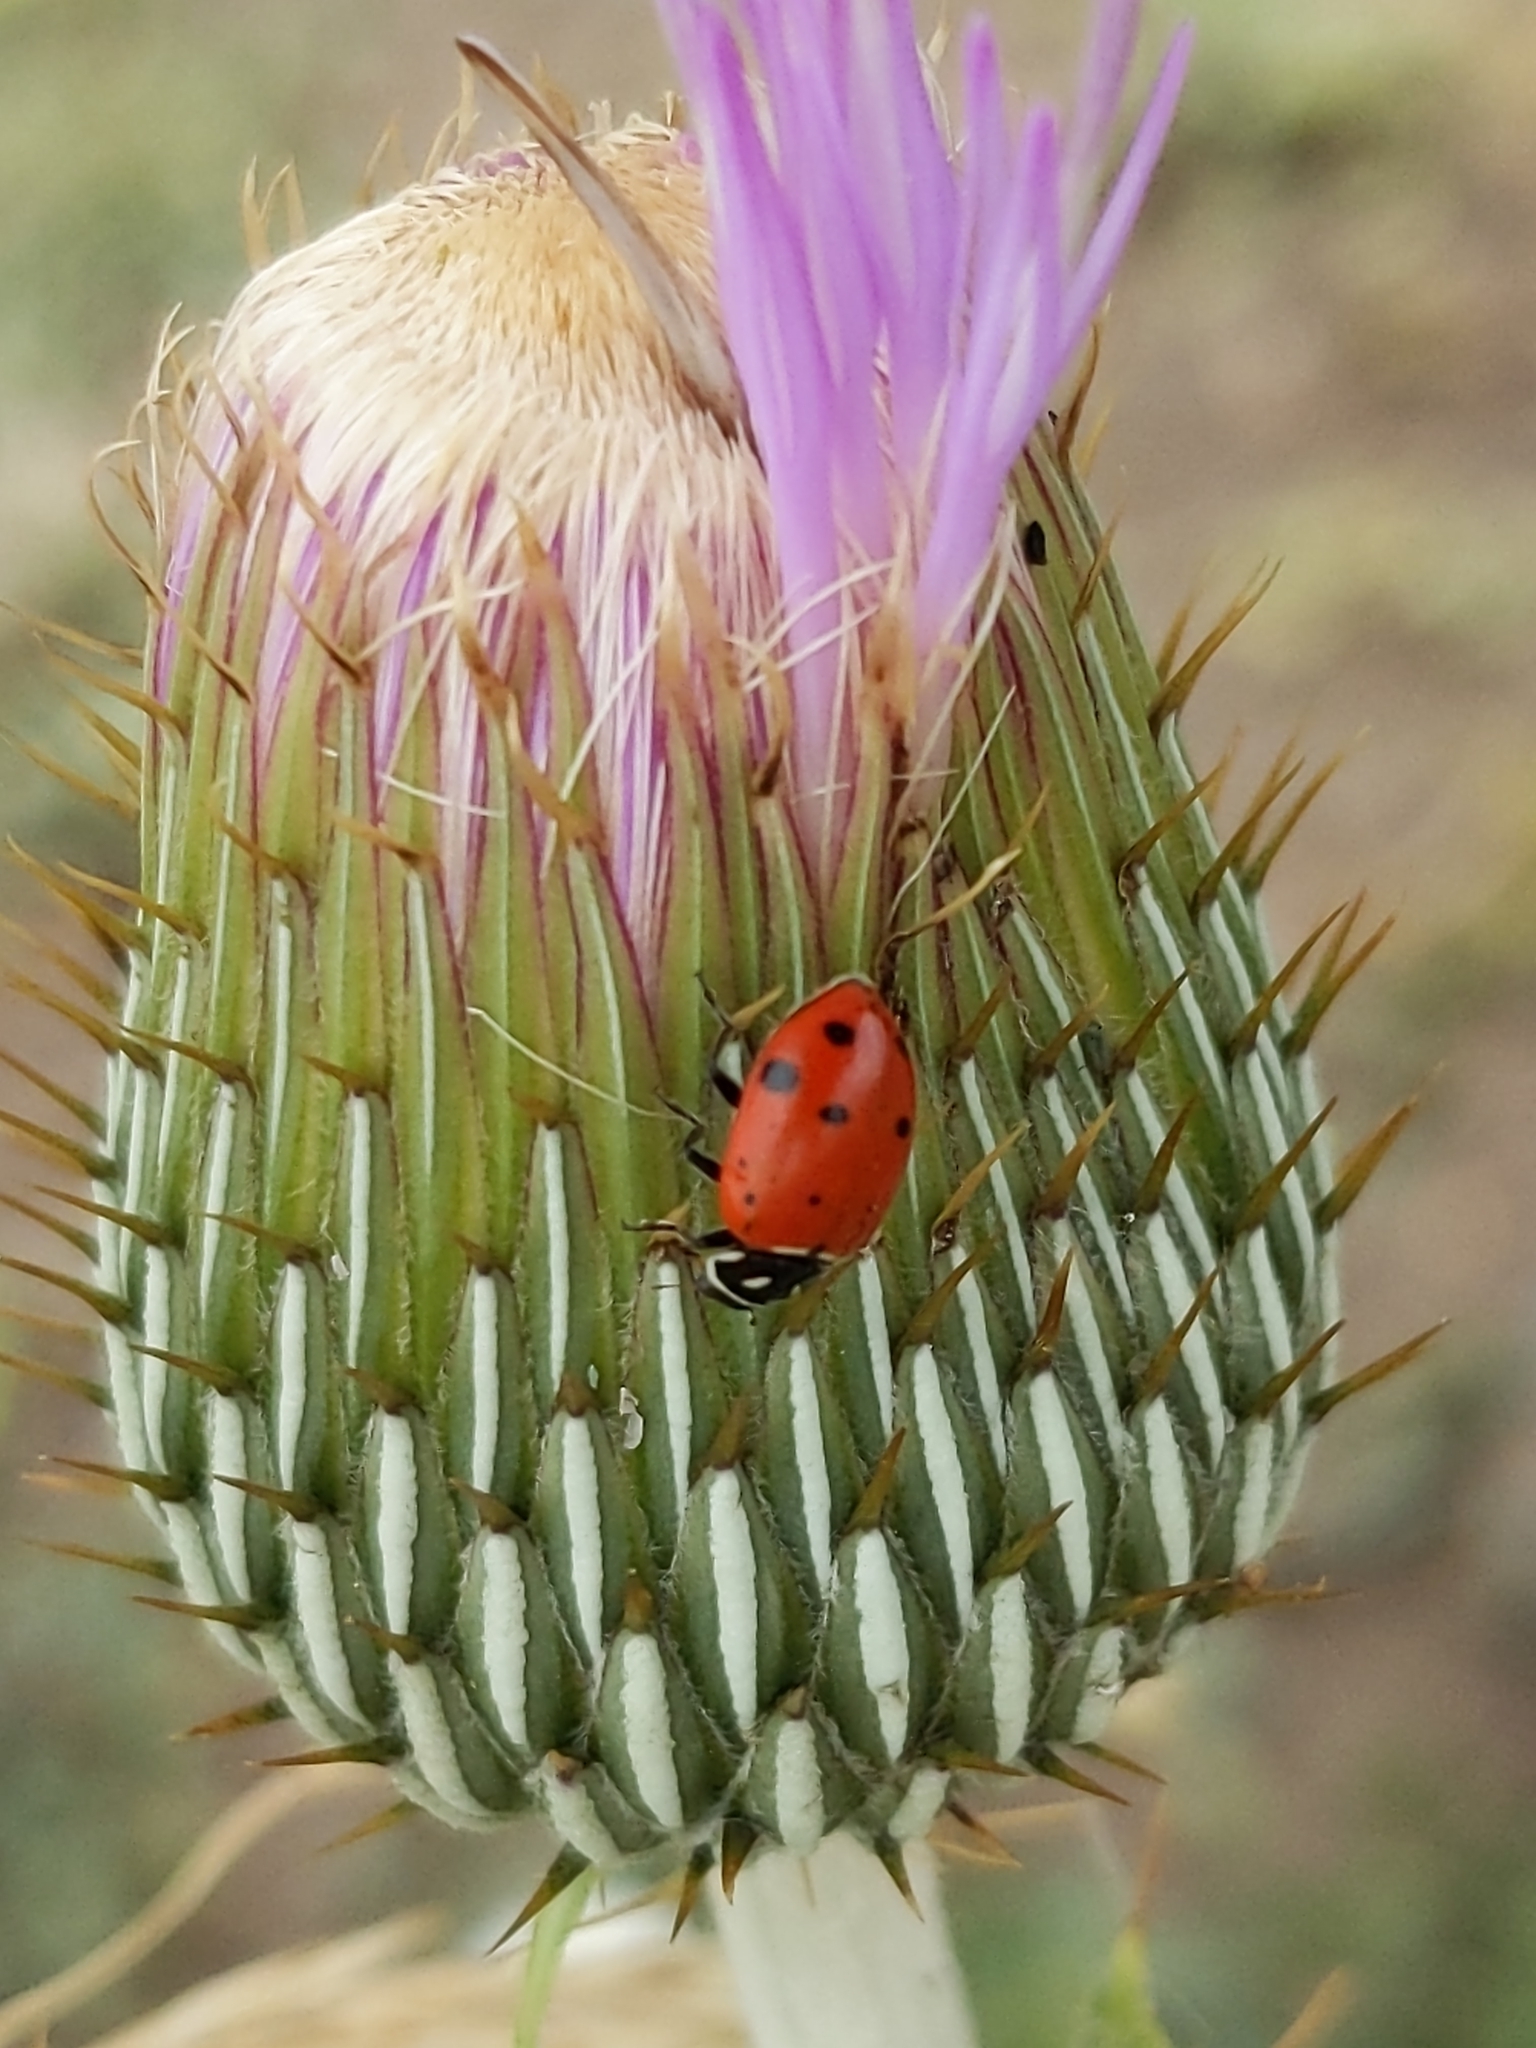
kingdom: Animalia
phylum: Arthropoda
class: Insecta
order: Coleoptera
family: Coccinellidae
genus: Hippodamia
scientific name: Hippodamia convergens
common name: Convergent lady beetle
